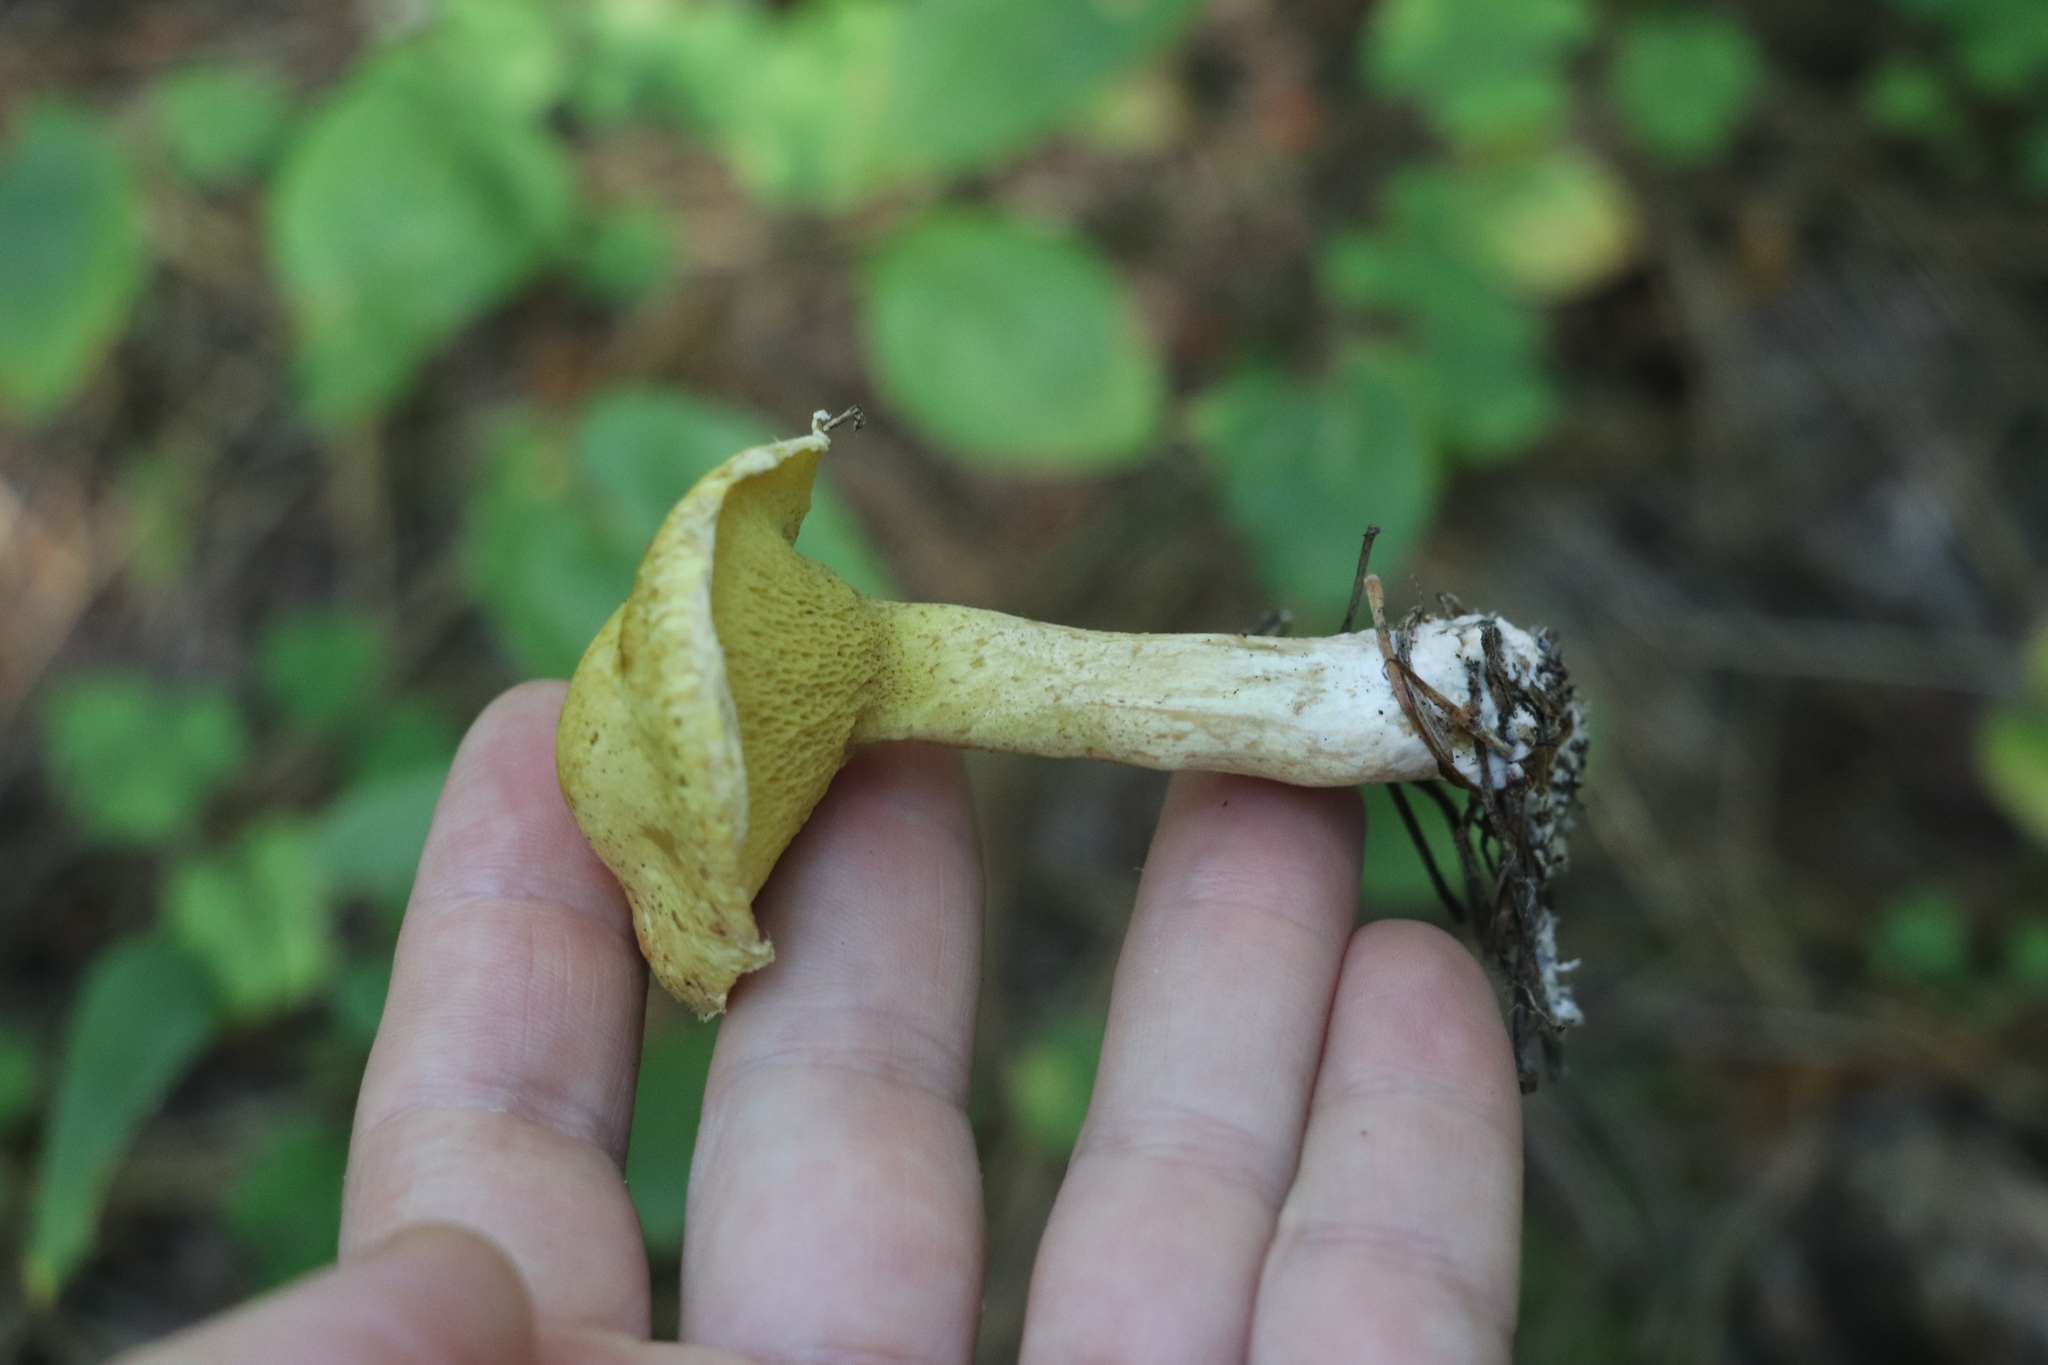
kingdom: Fungi
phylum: Basidiomycota
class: Agaricomycetes
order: Boletales
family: Suillaceae
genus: Suillus
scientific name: Suillus americanus
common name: Chicken fat mushroom
